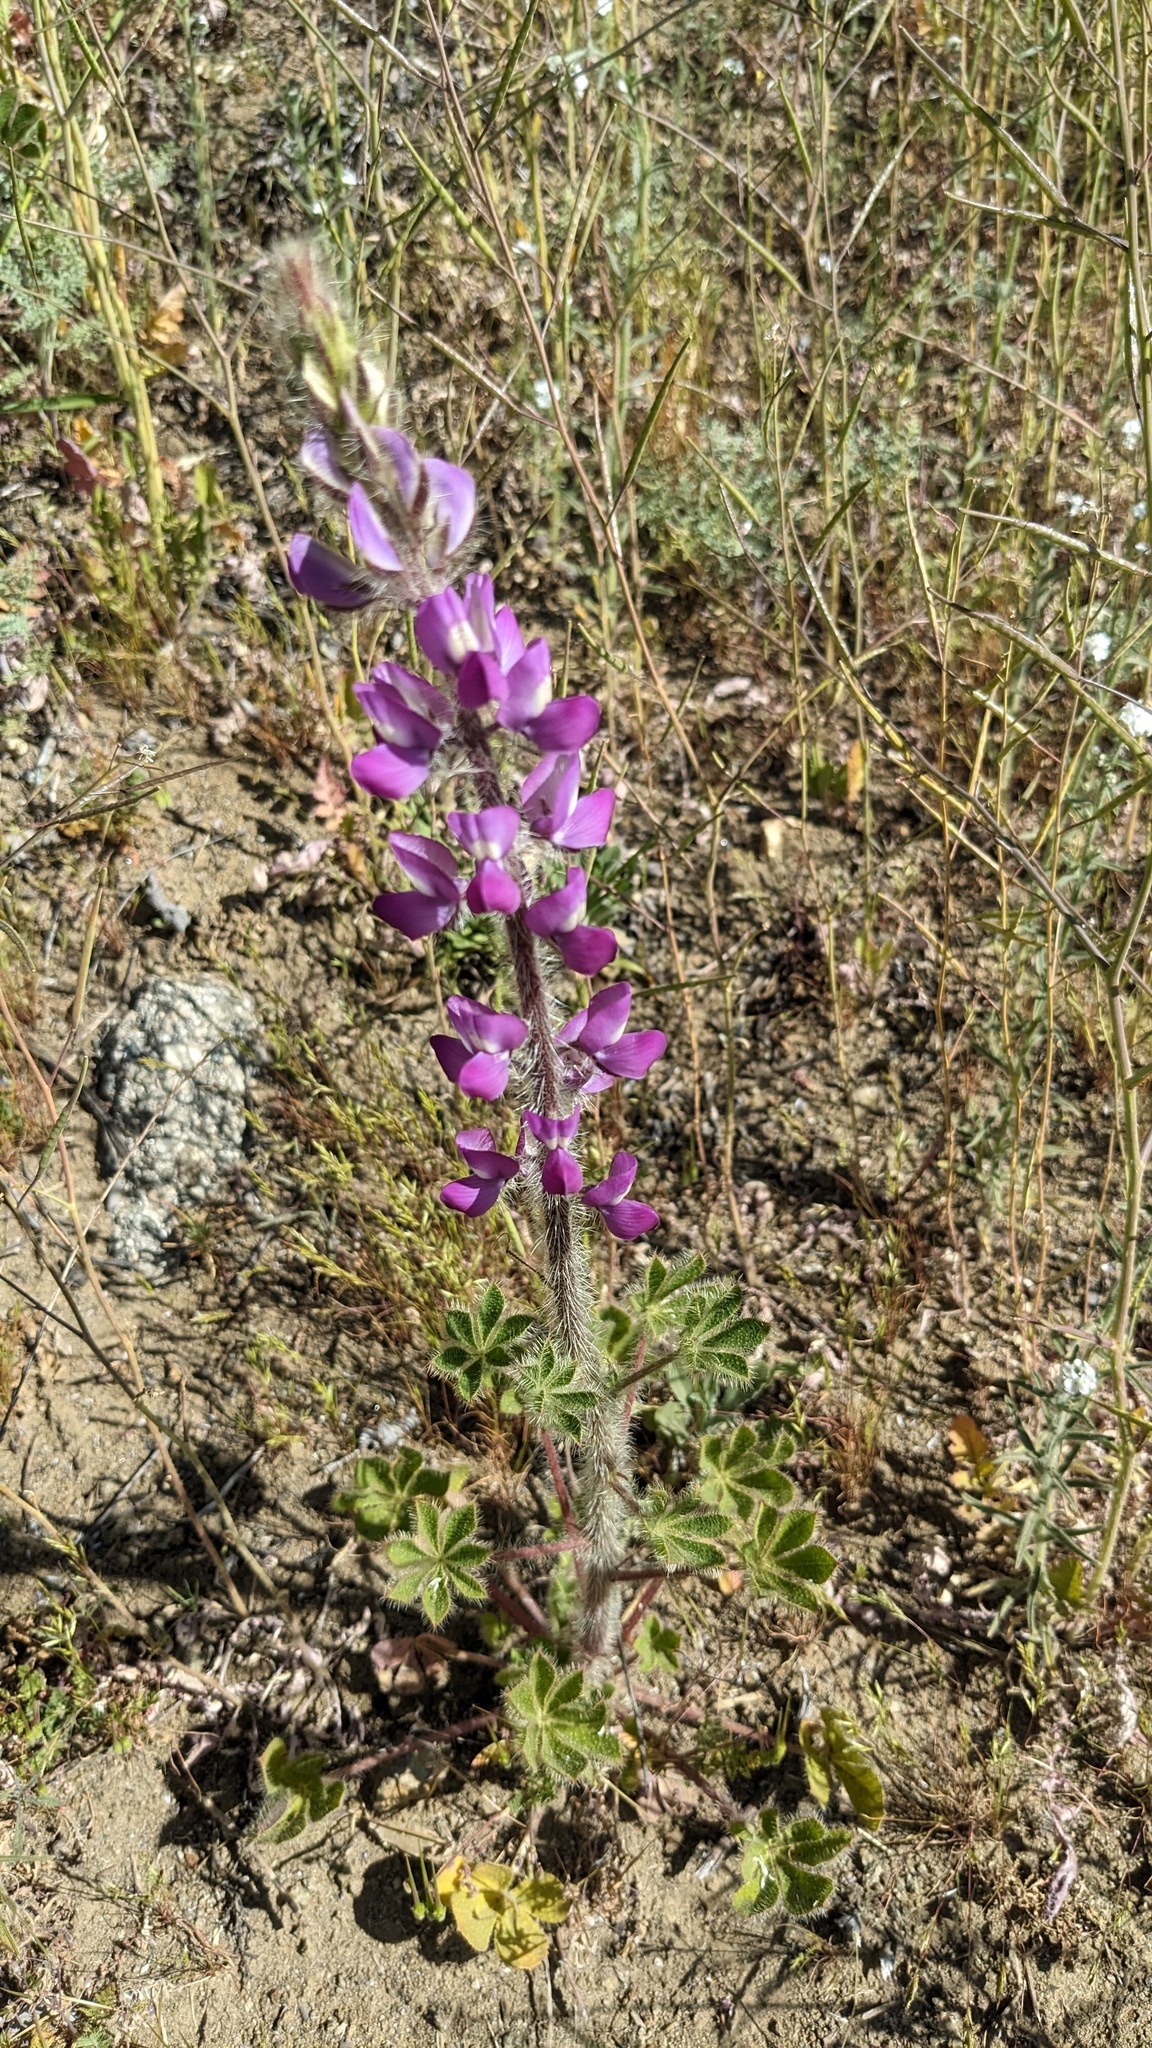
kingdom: Plantae
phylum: Tracheophyta
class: Magnoliopsida
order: Fabales
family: Fabaceae
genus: Lupinus
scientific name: Lupinus hirsutissimus
